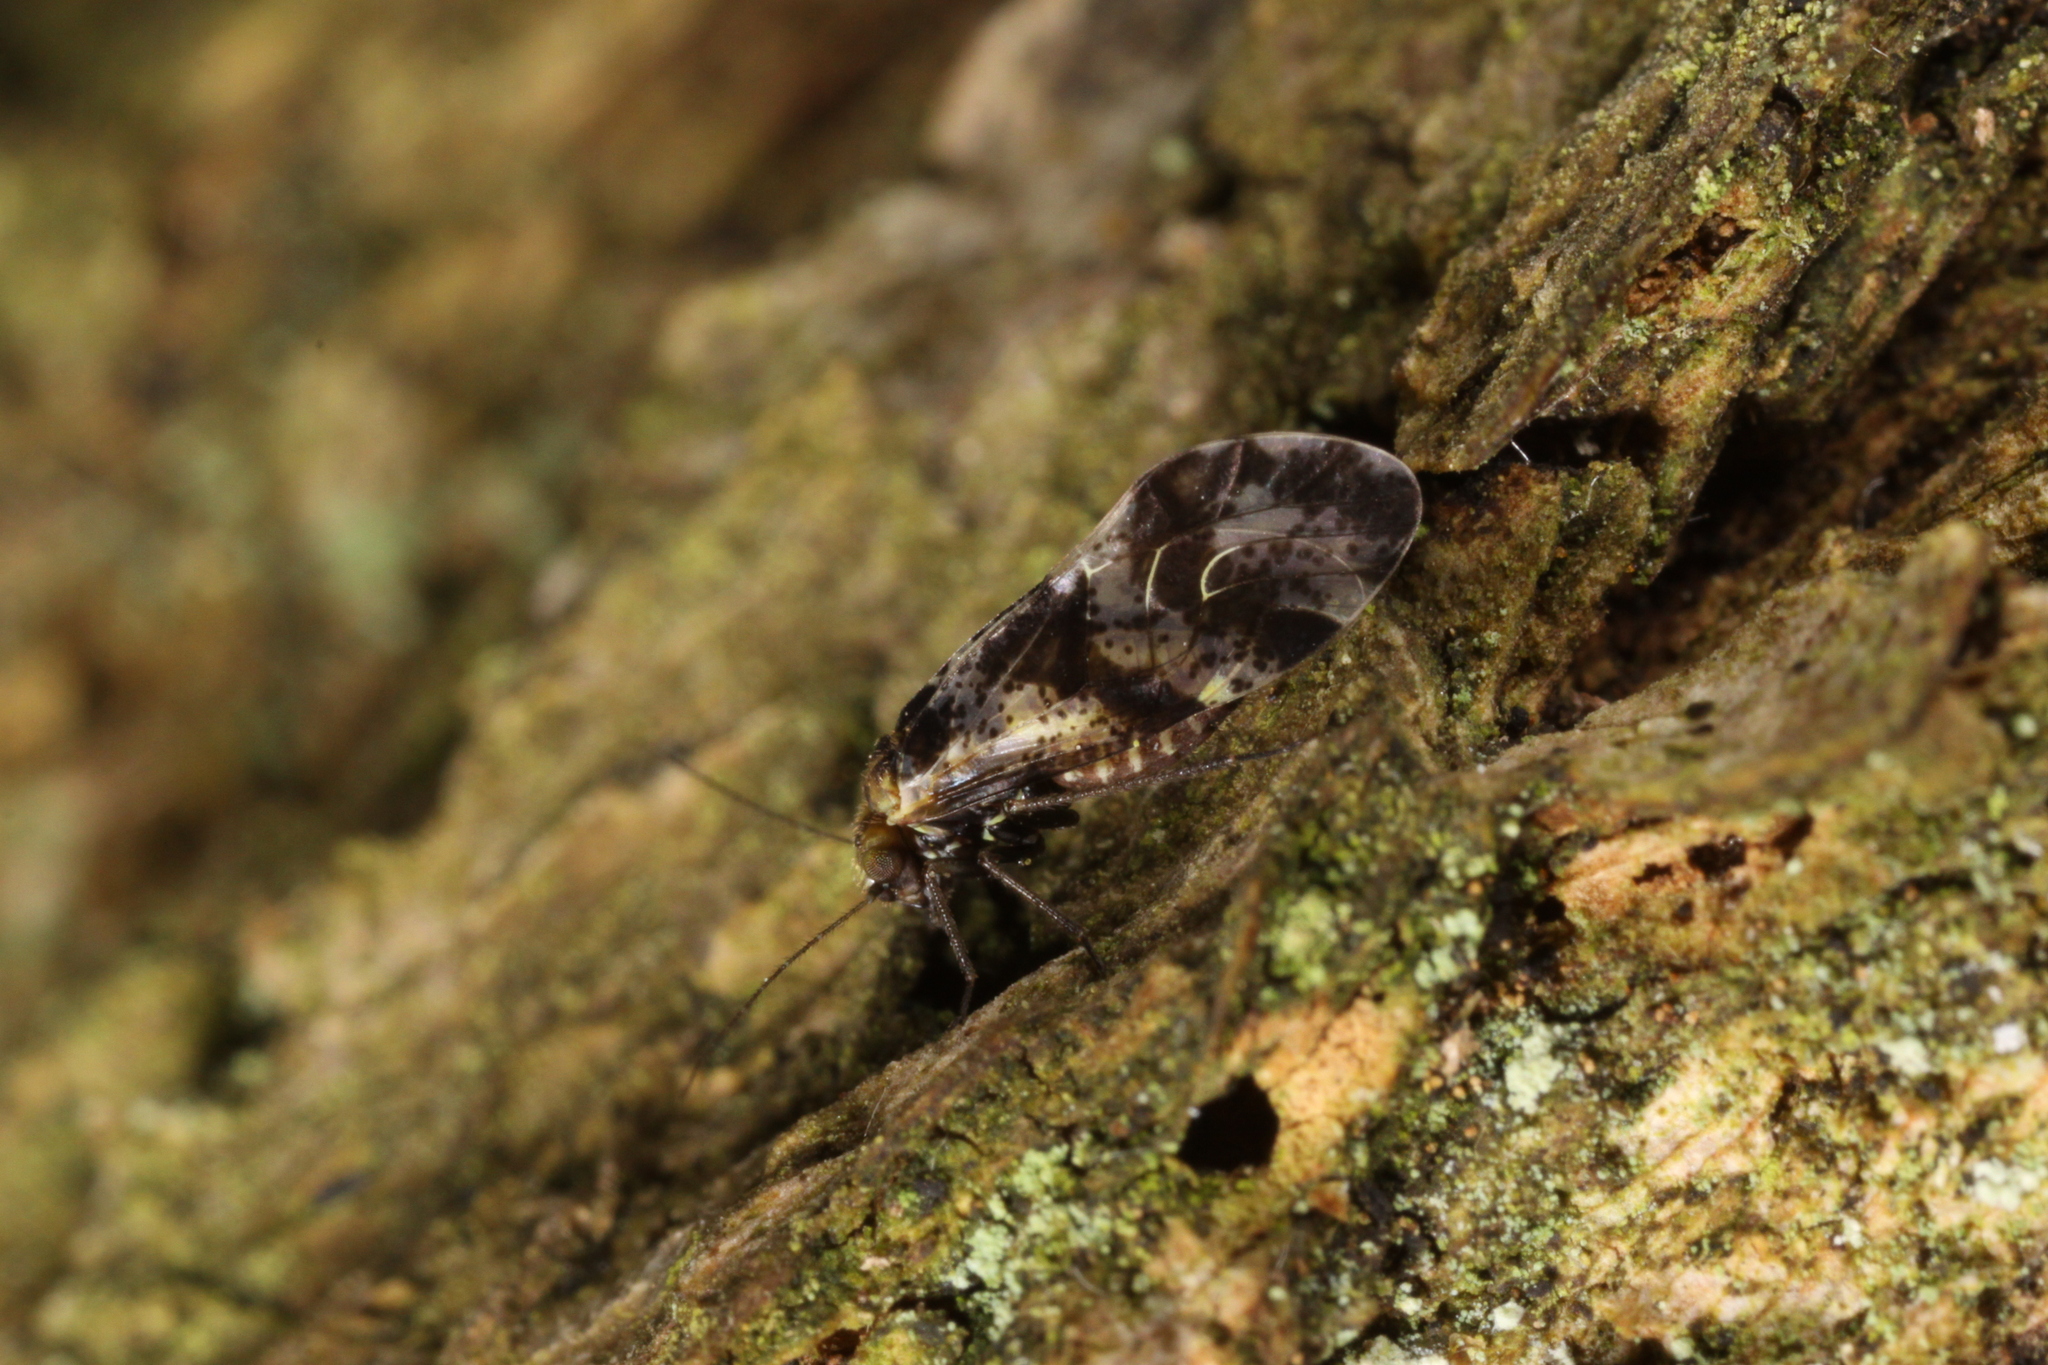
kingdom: Animalia
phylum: Arthropoda
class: Insecta
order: Psocodea
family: Psocidae
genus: Loensia
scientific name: Loensia fasciata
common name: Common bark louse
